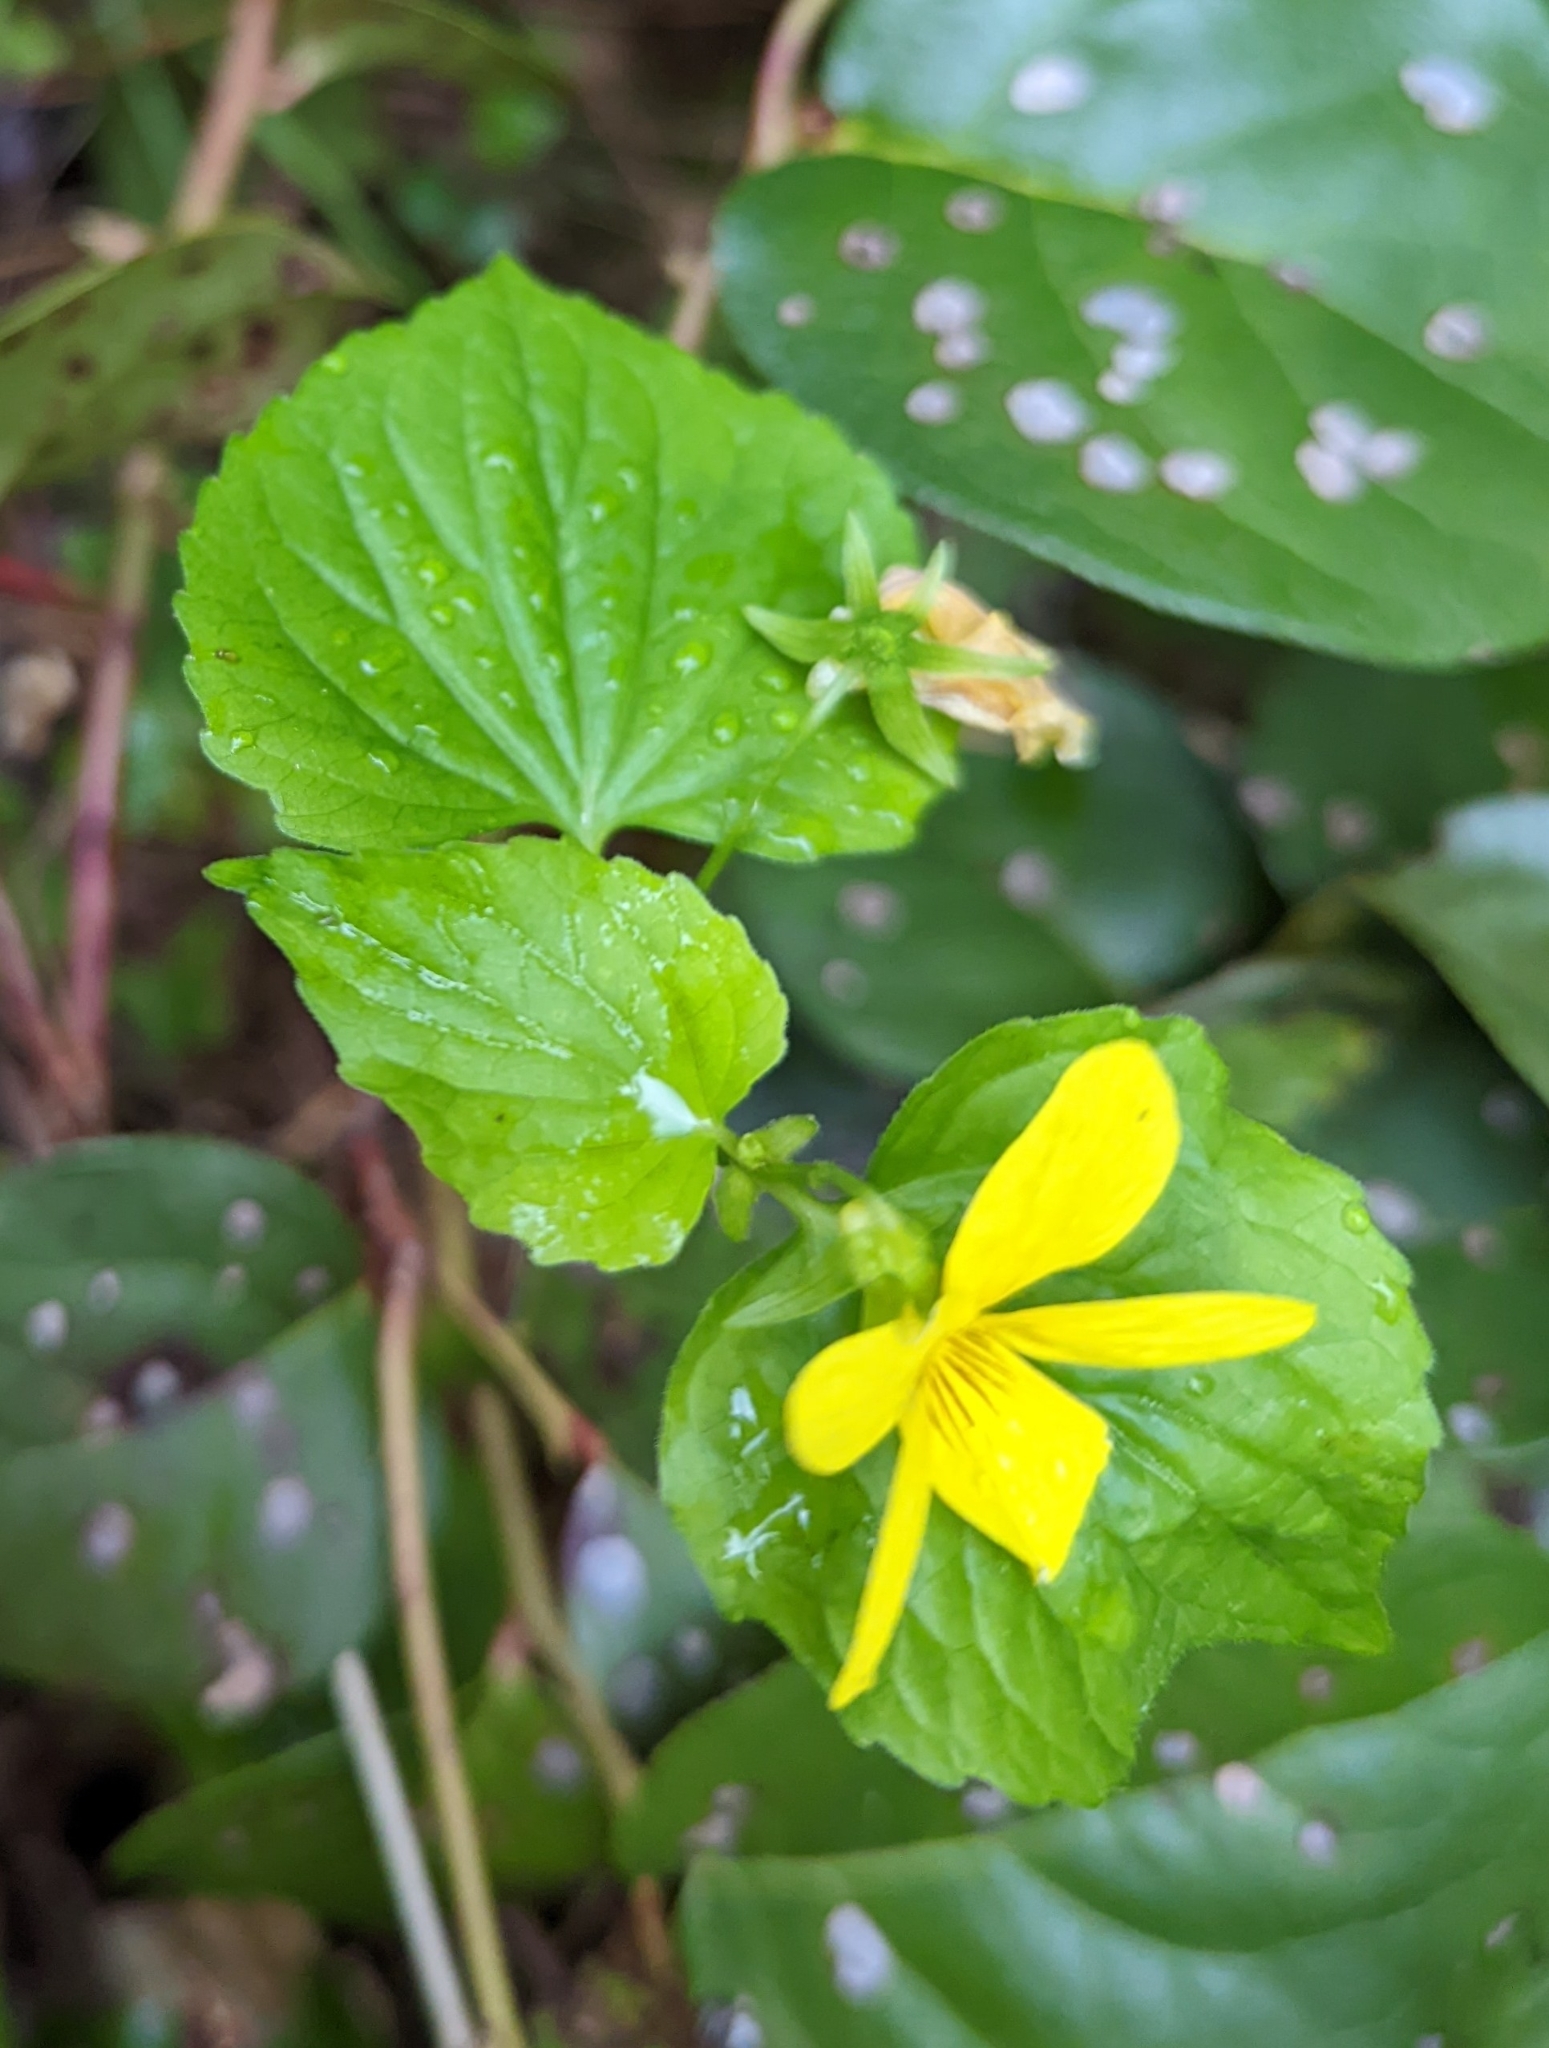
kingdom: Plantae
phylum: Tracheophyta
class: Magnoliopsida
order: Malpighiales
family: Violaceae
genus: Viola
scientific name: Viola glabella
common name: Stream violet
